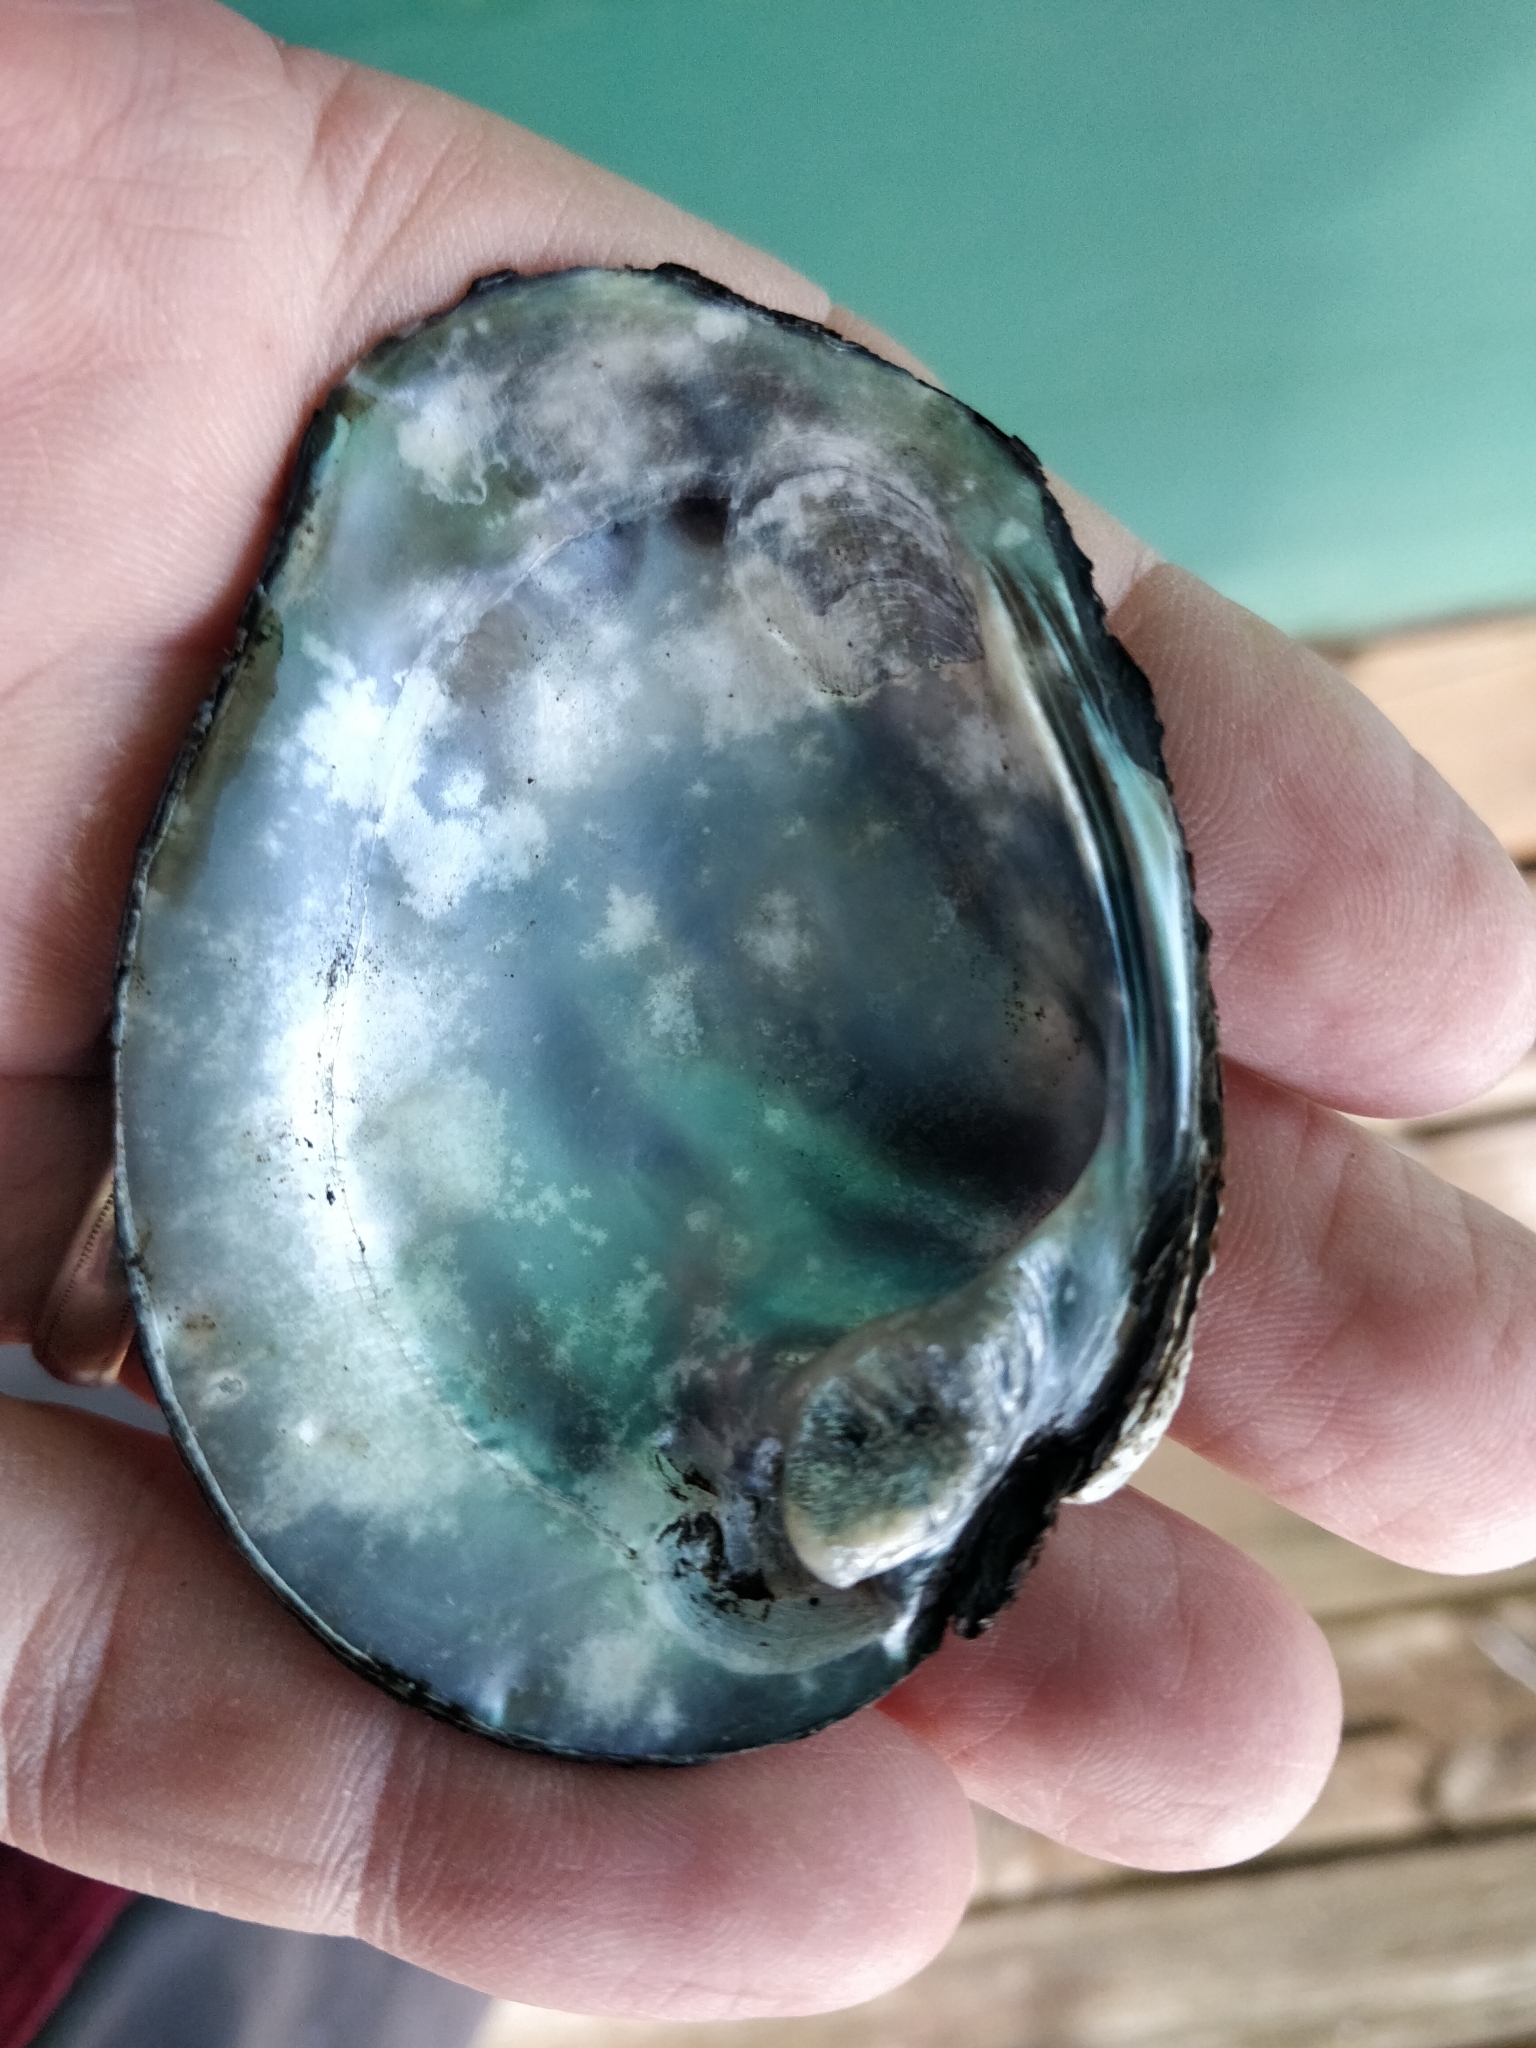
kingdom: Animalia
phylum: Mollusca
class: Bivalvia
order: Unionida
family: Unionidae
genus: Quadrula
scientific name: Quadrula quadrula
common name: Mapleleaf
